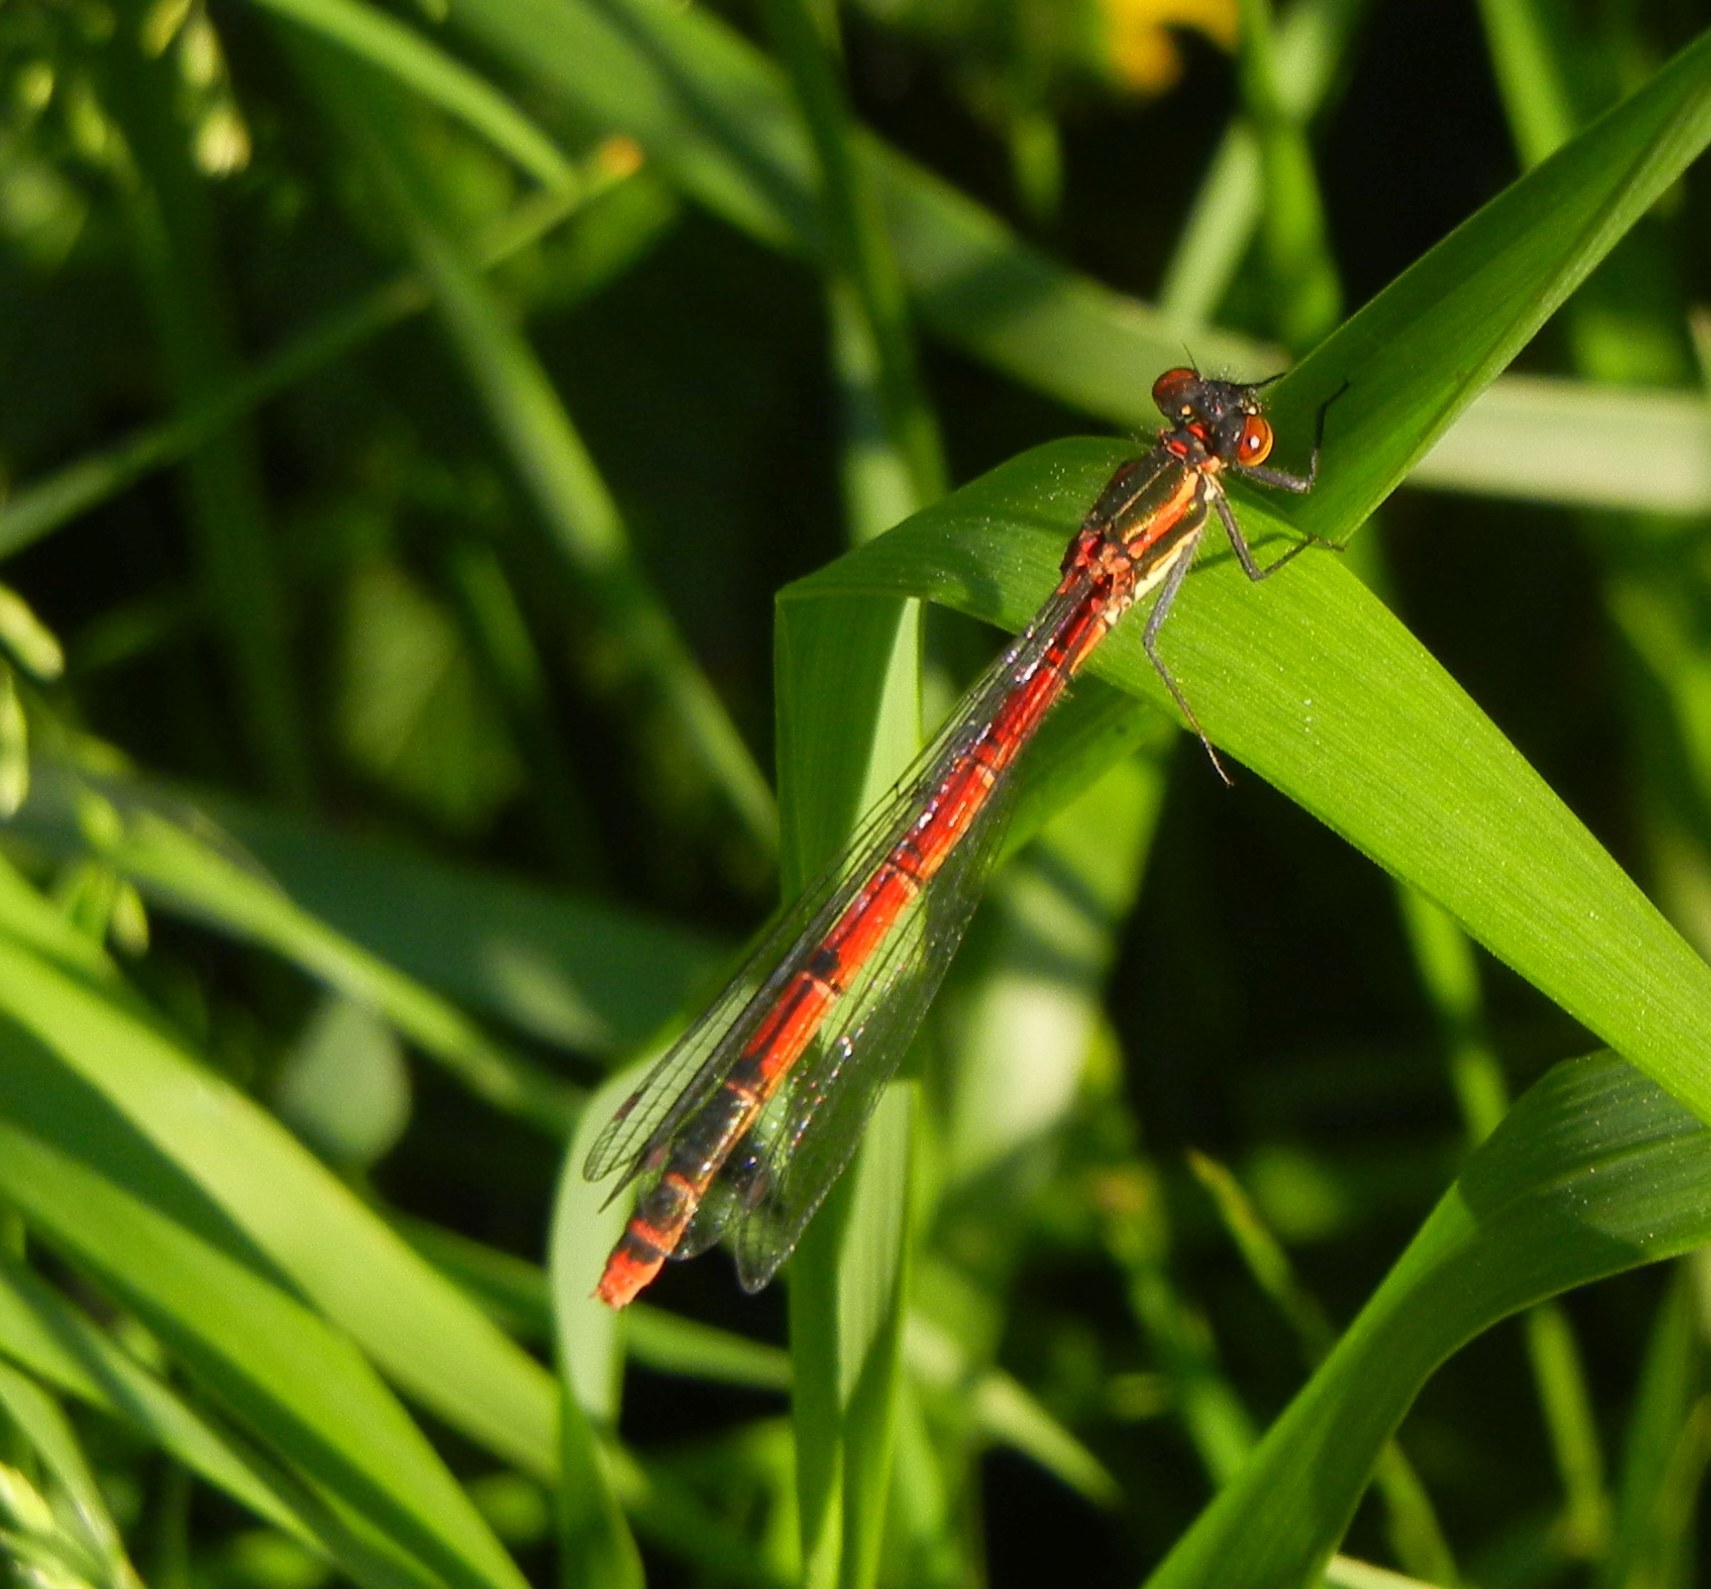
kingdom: Animalia
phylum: Arthropoda
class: Insecta
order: Odonata
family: Coenagrionidae
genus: Pyrrhosoma
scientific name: Pyrrhosoma nymphula
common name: Large red damsel
